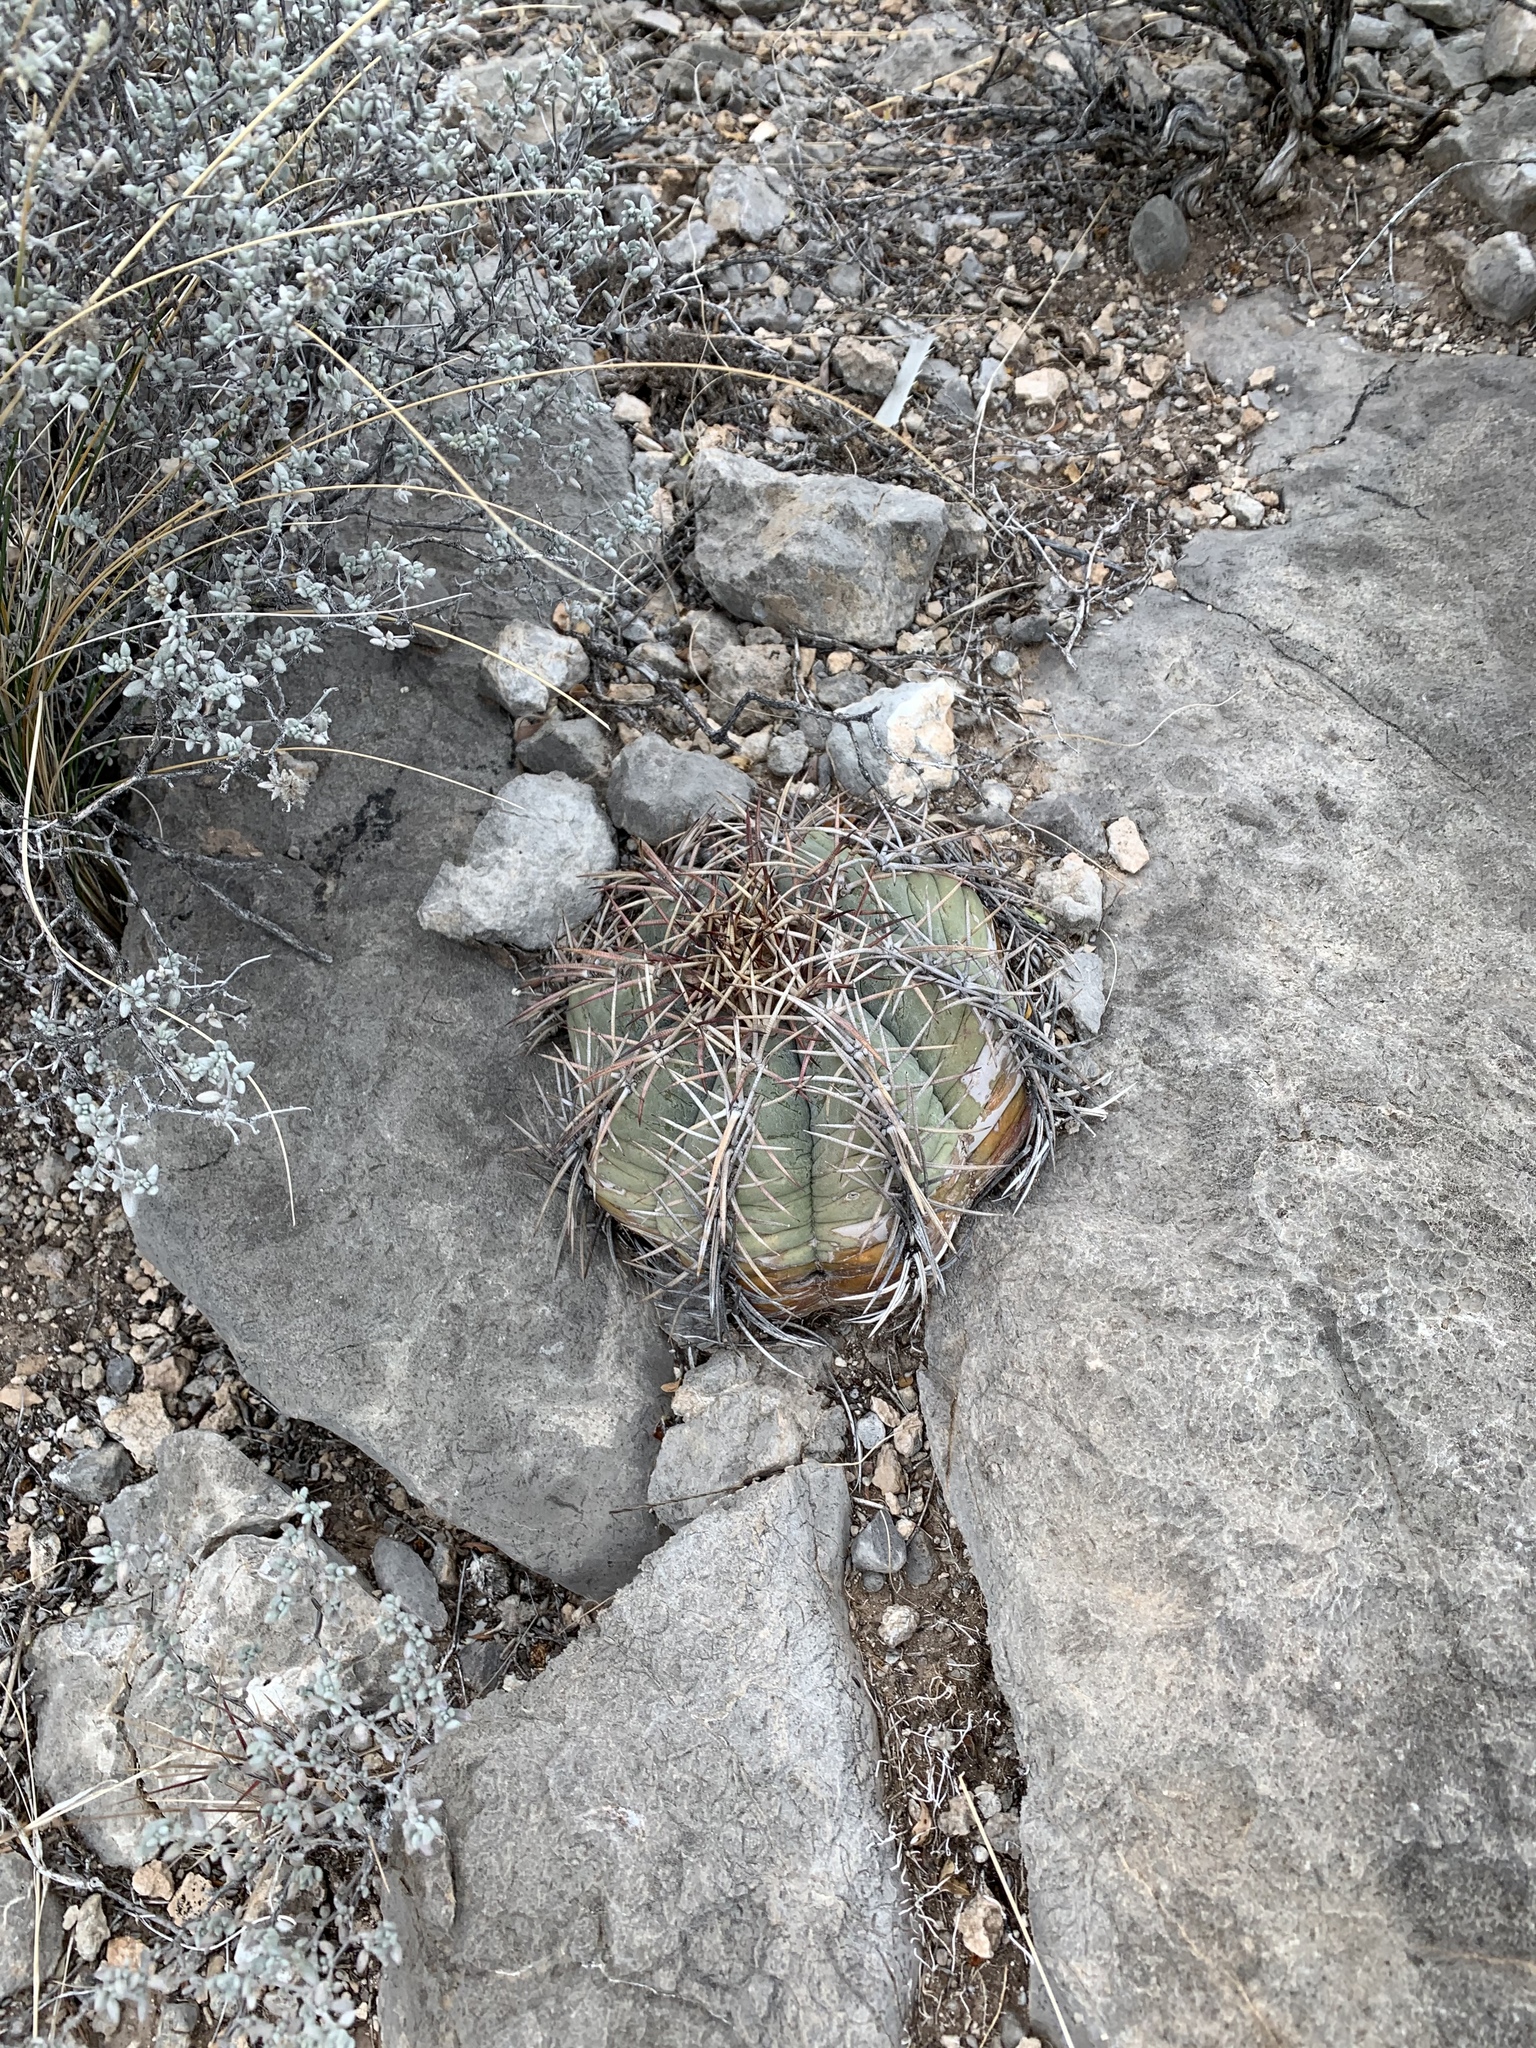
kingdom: Plantae
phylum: Tracheophyta
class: Magnoliopsida
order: Caryophyllales
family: Cactaceae
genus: Echinocactus
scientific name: Echinocactus horizonthalonius
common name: Devilshead
